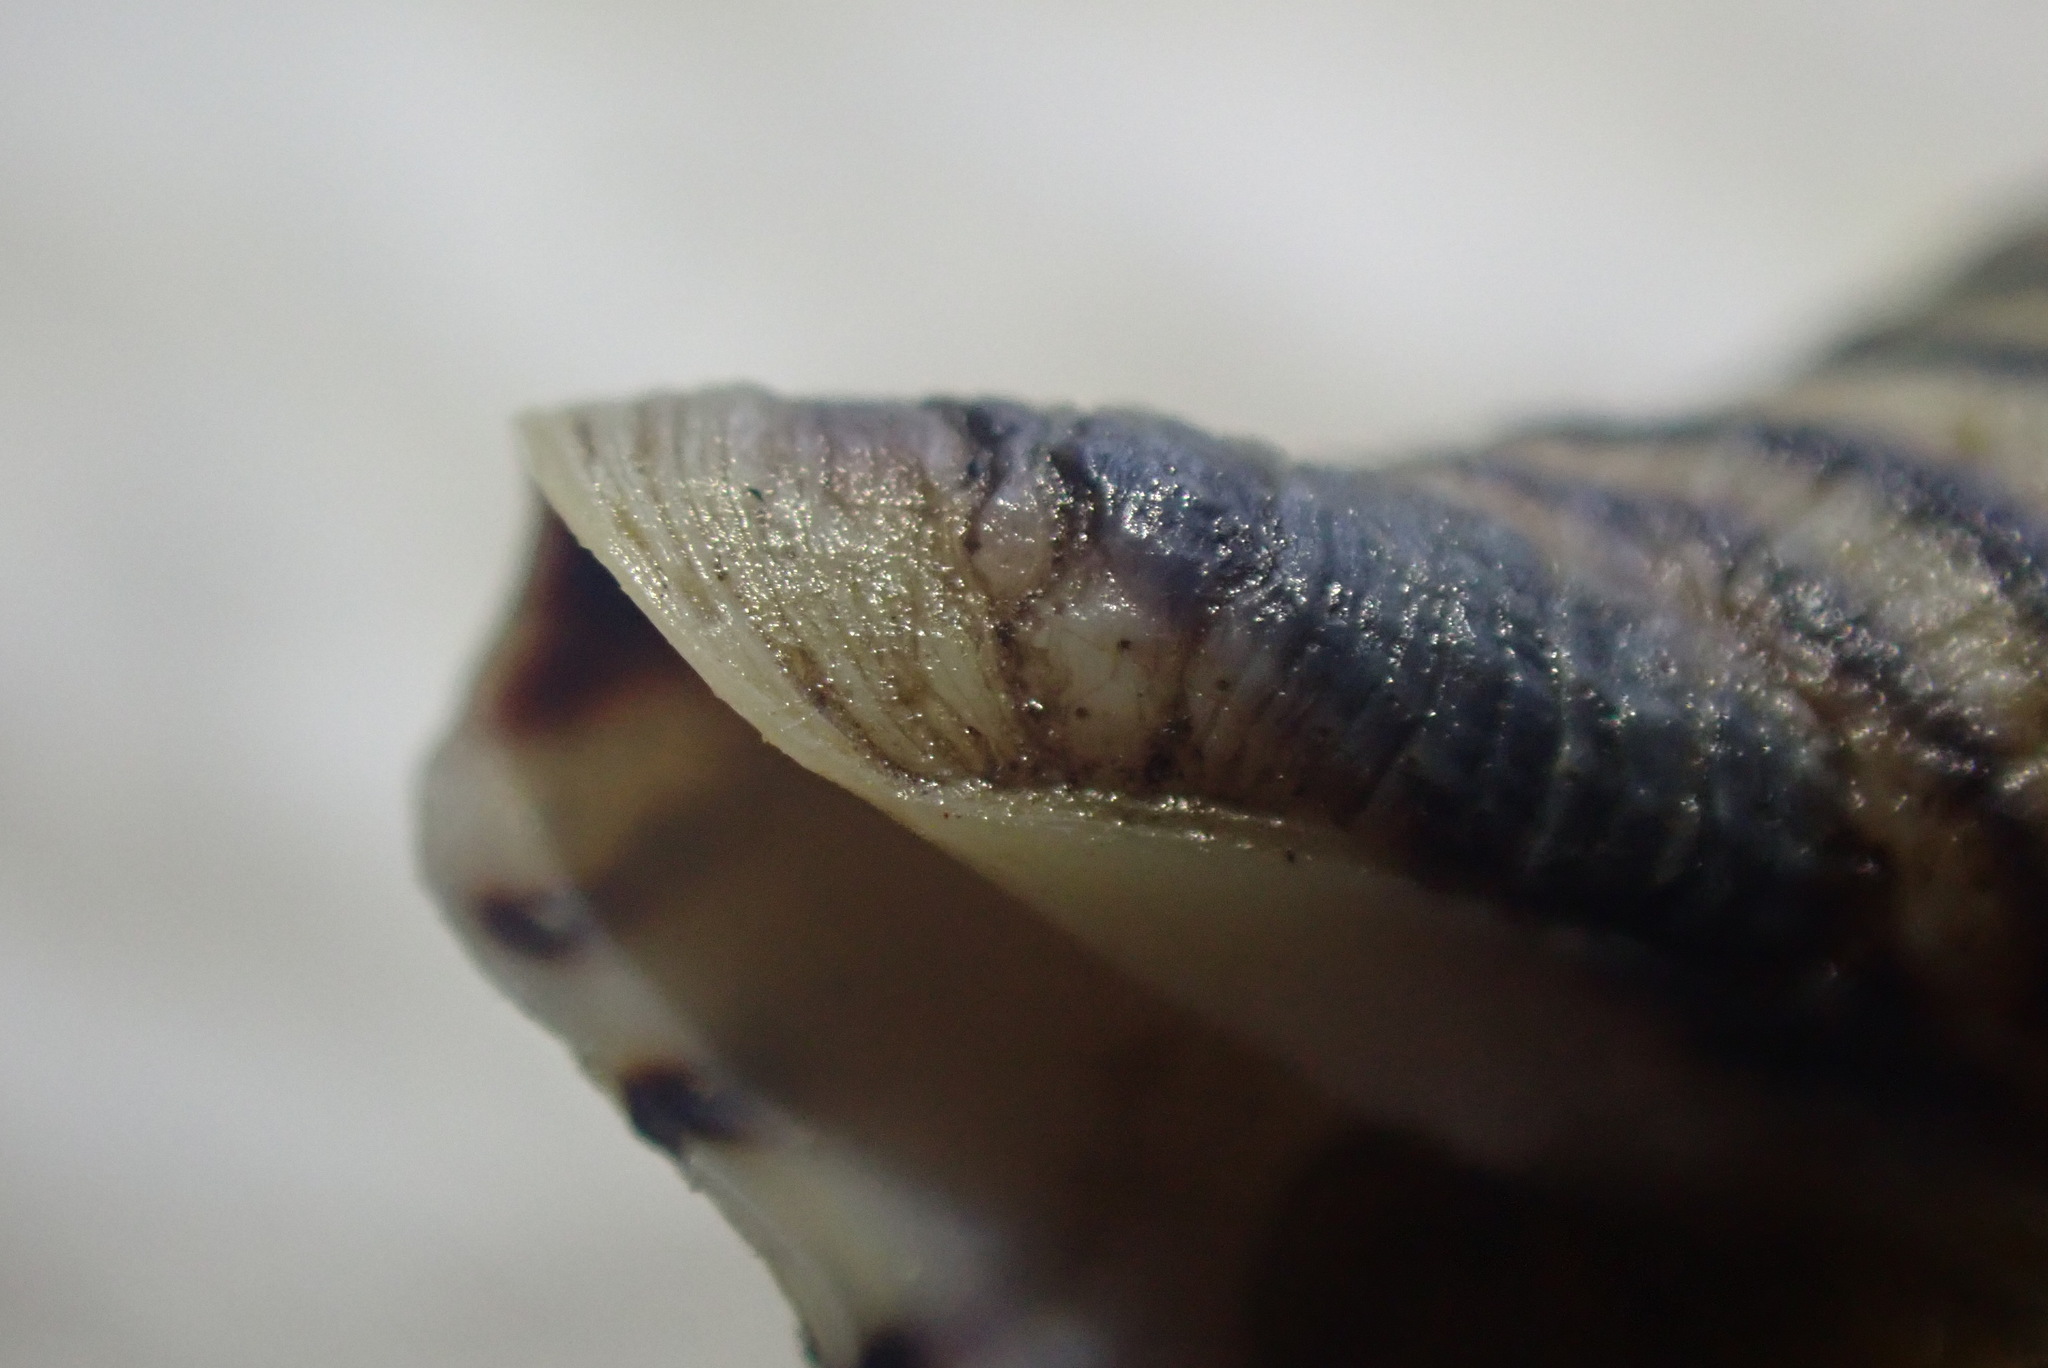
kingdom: Animalia
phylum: Mollusca
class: Gastropoda
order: Neogastropoda
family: Tudiclidae
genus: Buccinulum
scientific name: Buccinulum linea
